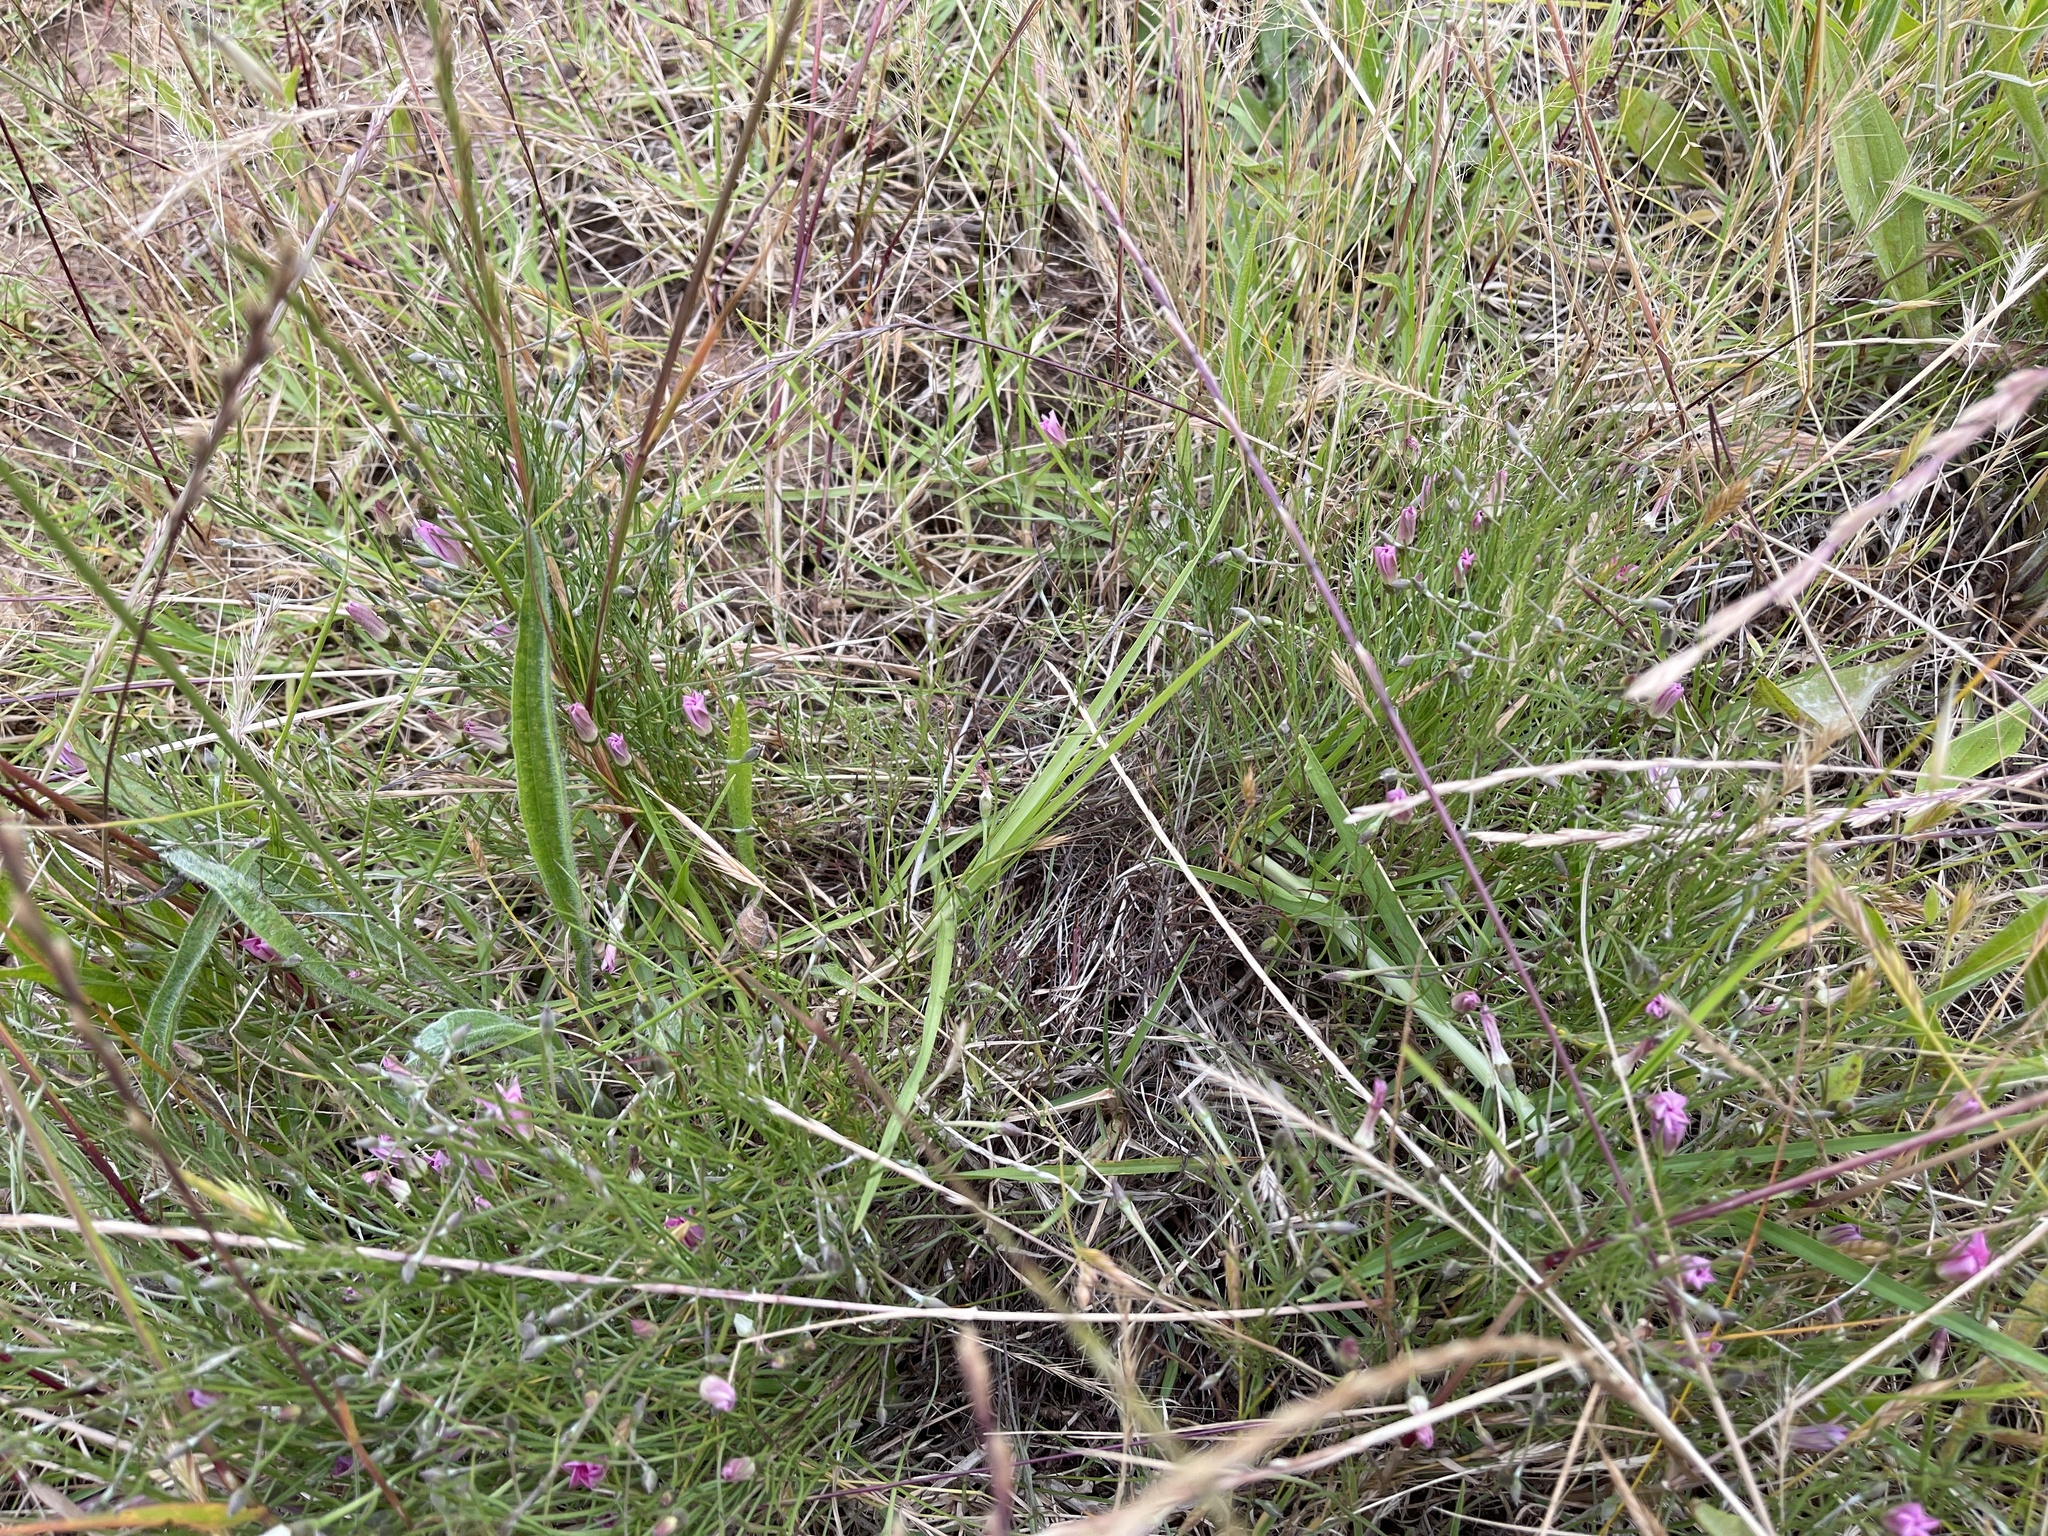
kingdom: Plantae
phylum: Tracheophyta
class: Magnoliopsida
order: Solanales
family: Convolvulaceae
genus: Convolvulus
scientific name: Convolvulus angustissimus
